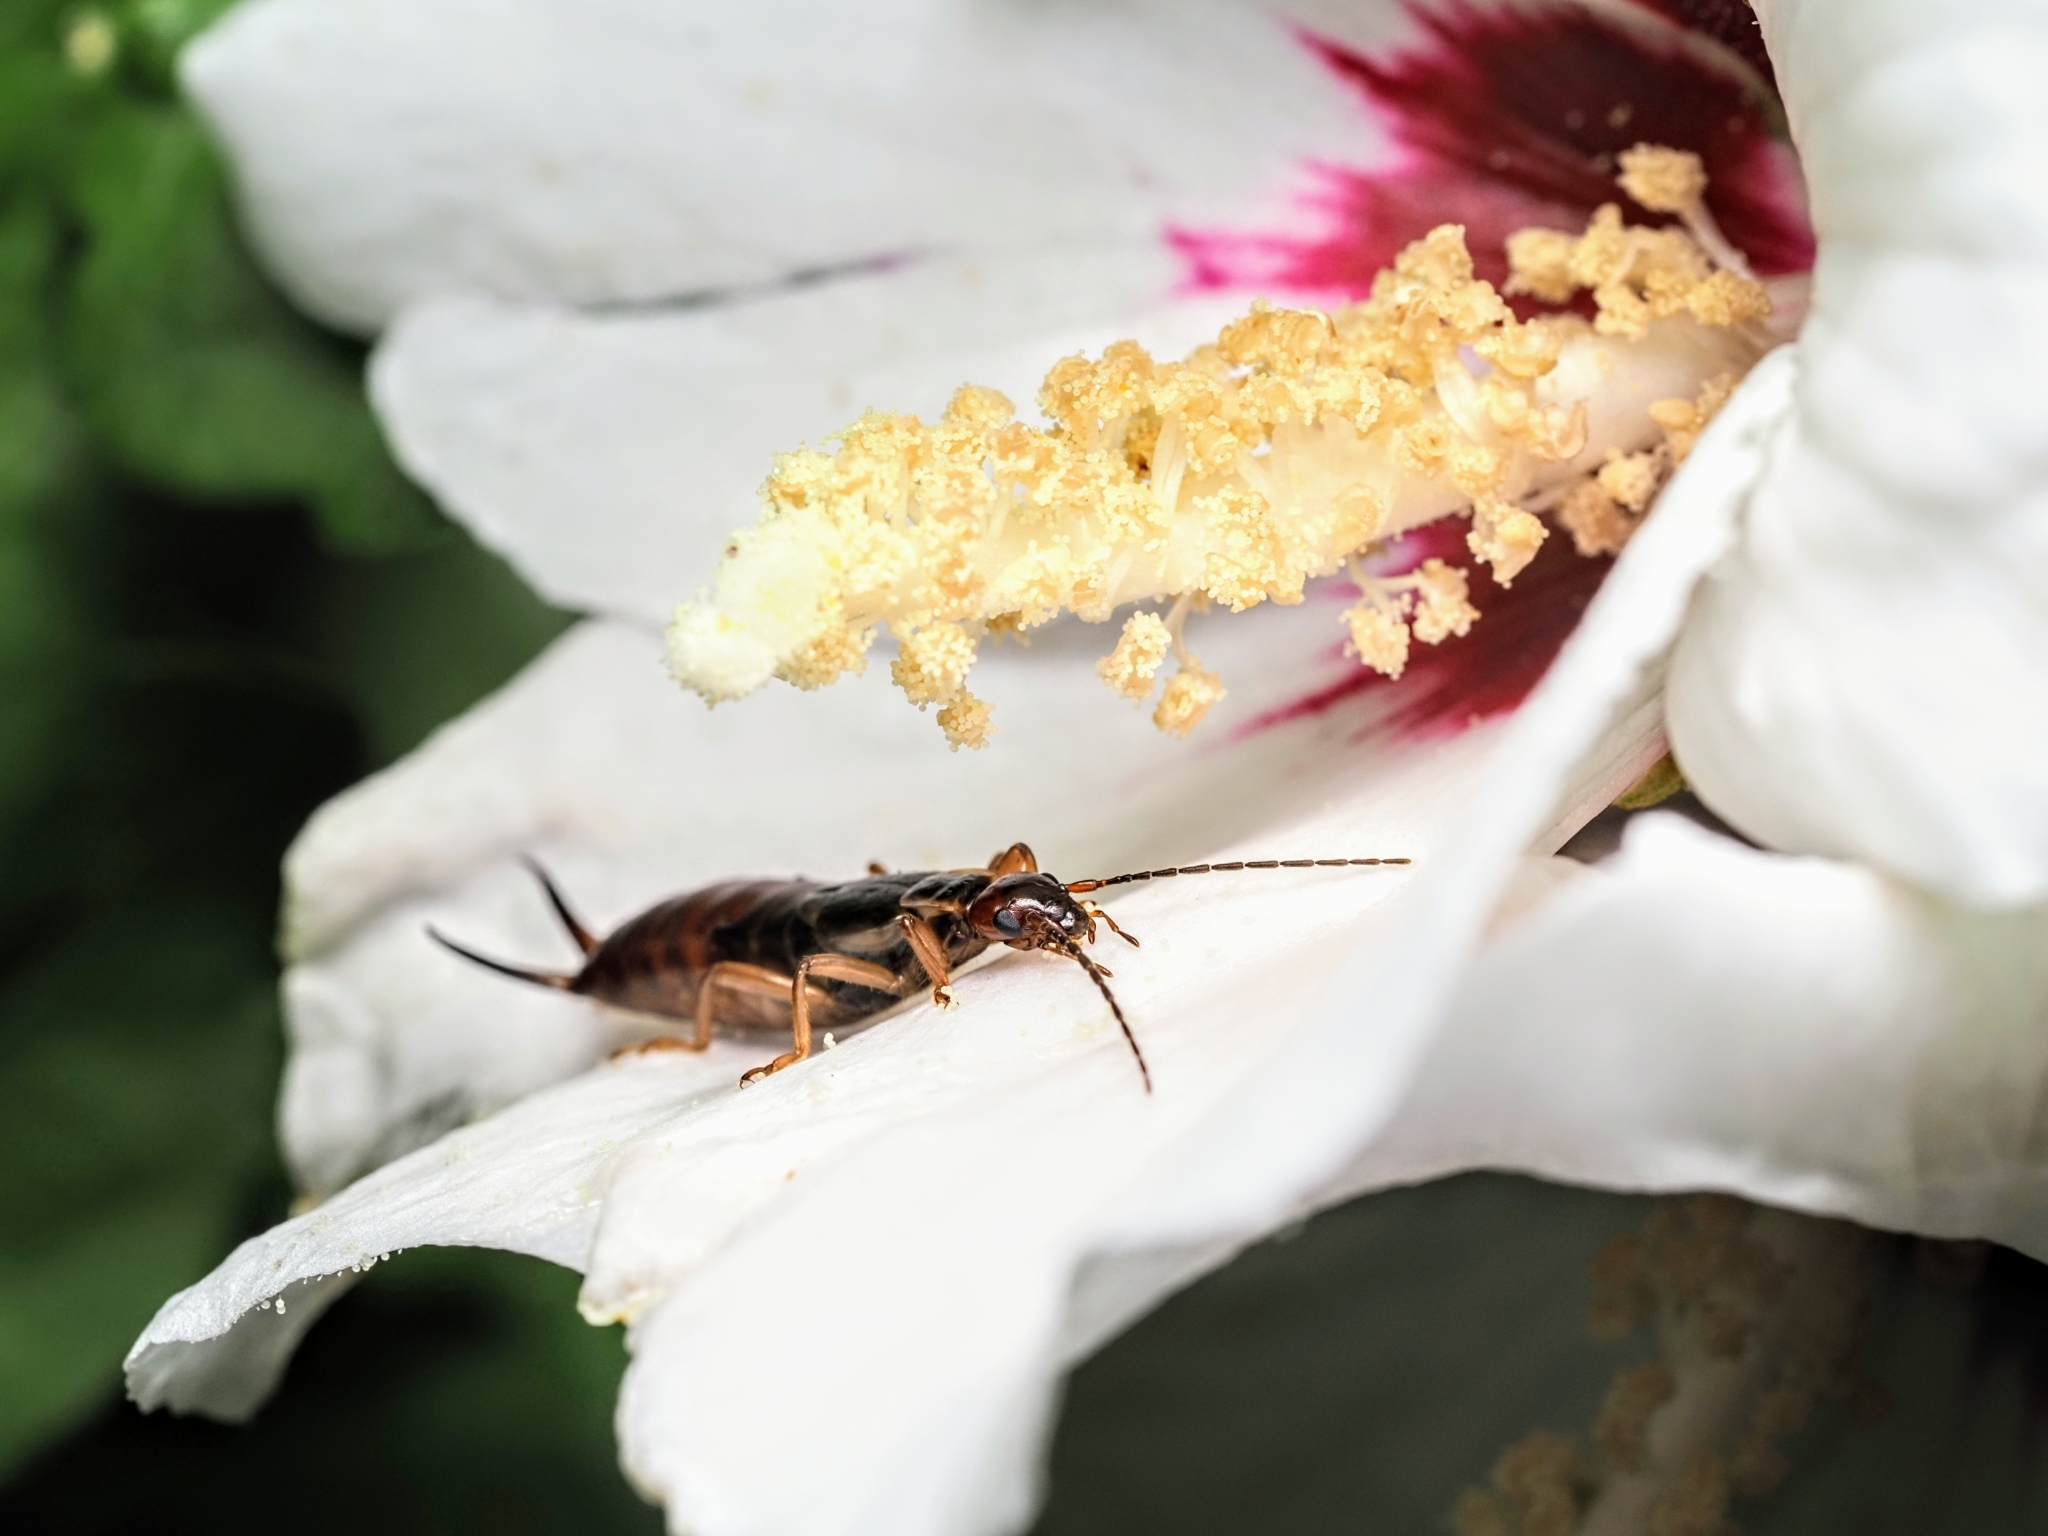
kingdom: Animalia
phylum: Arthropoda
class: Insecta
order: Dermaptera
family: Forficulidae
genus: Forficula
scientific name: Forficula
